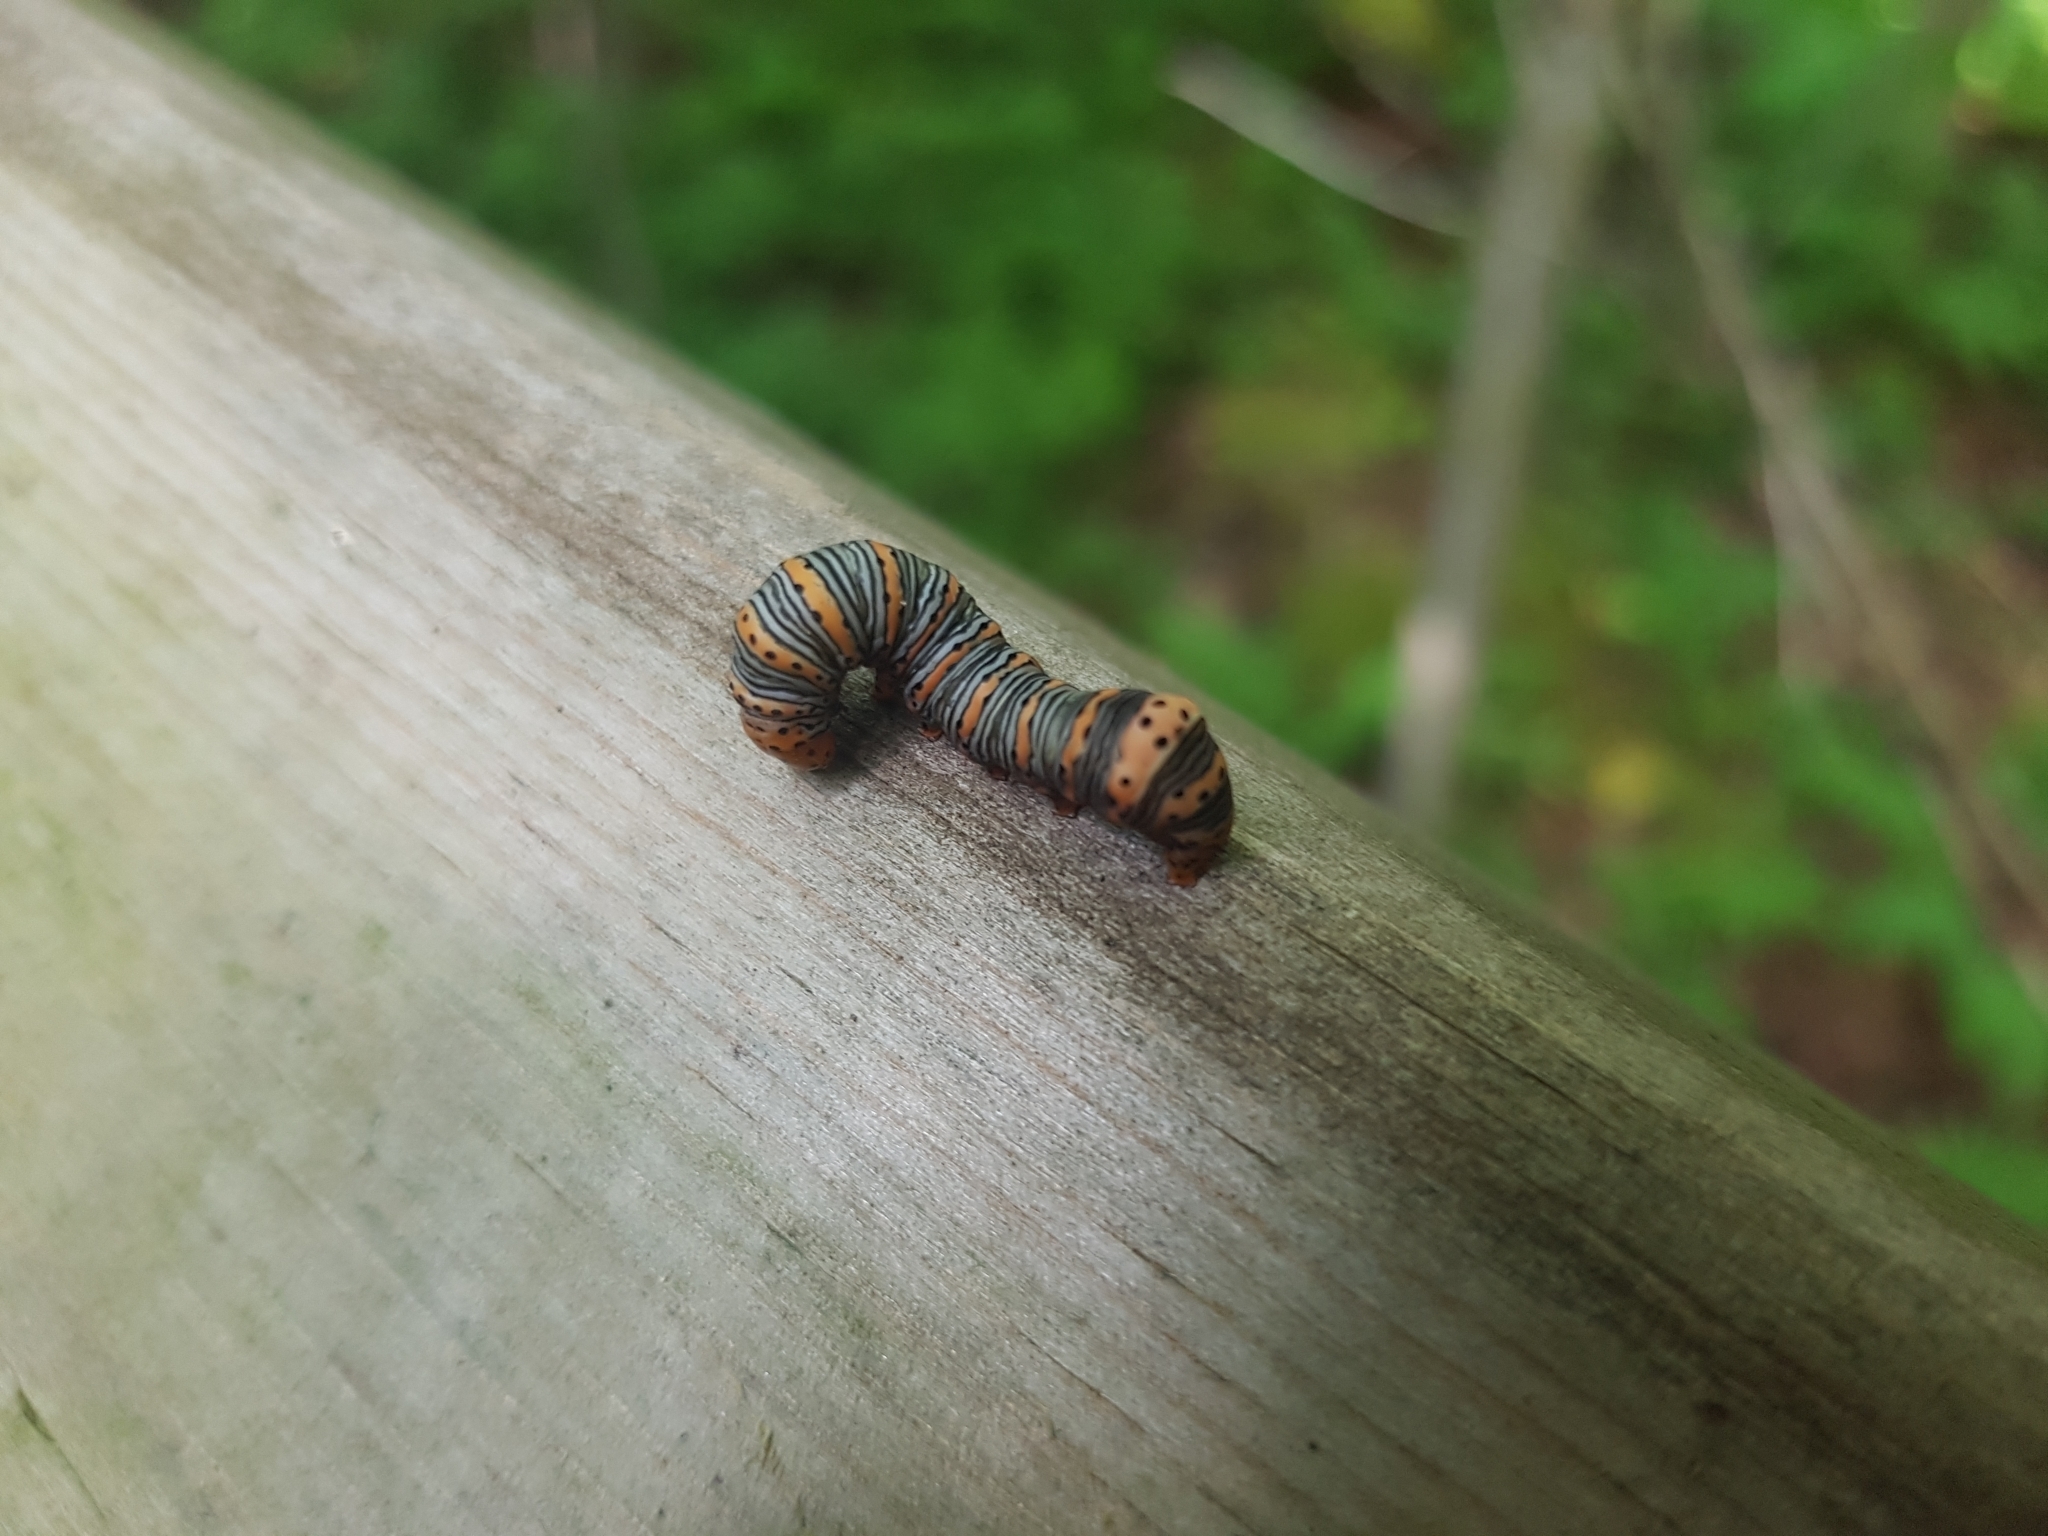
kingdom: Animalia
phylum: Arthropoda
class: Insecta
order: Lepidoptera
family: Noctuidae
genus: Eudryas
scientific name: Eudryas grata
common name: Beautiful wood-nymph
